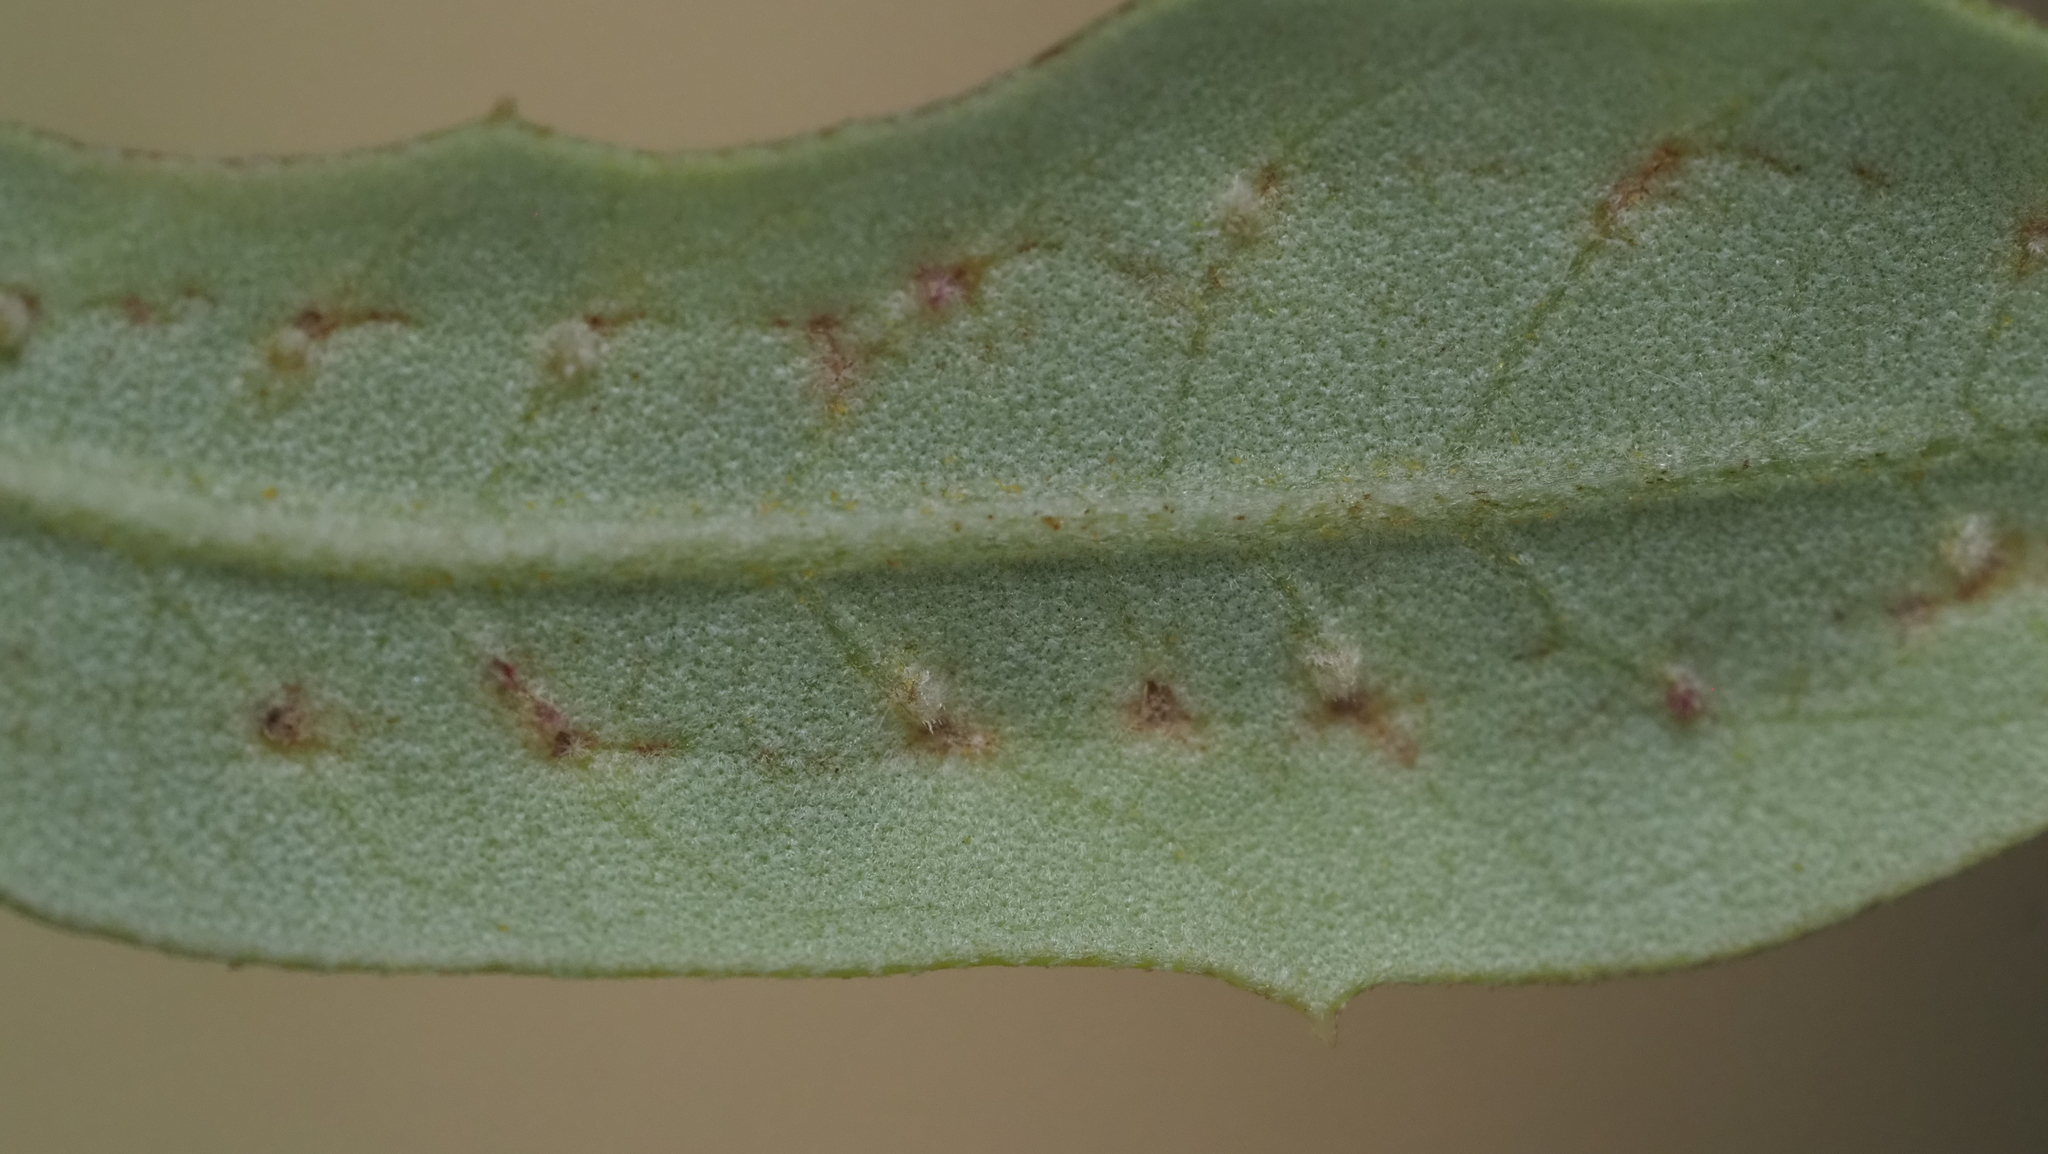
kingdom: Animalia
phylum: Arthropoda
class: Insecta
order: Hymenoptera
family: Cynipidae
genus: Belonocnema
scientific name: Belonocnema kinseyi
